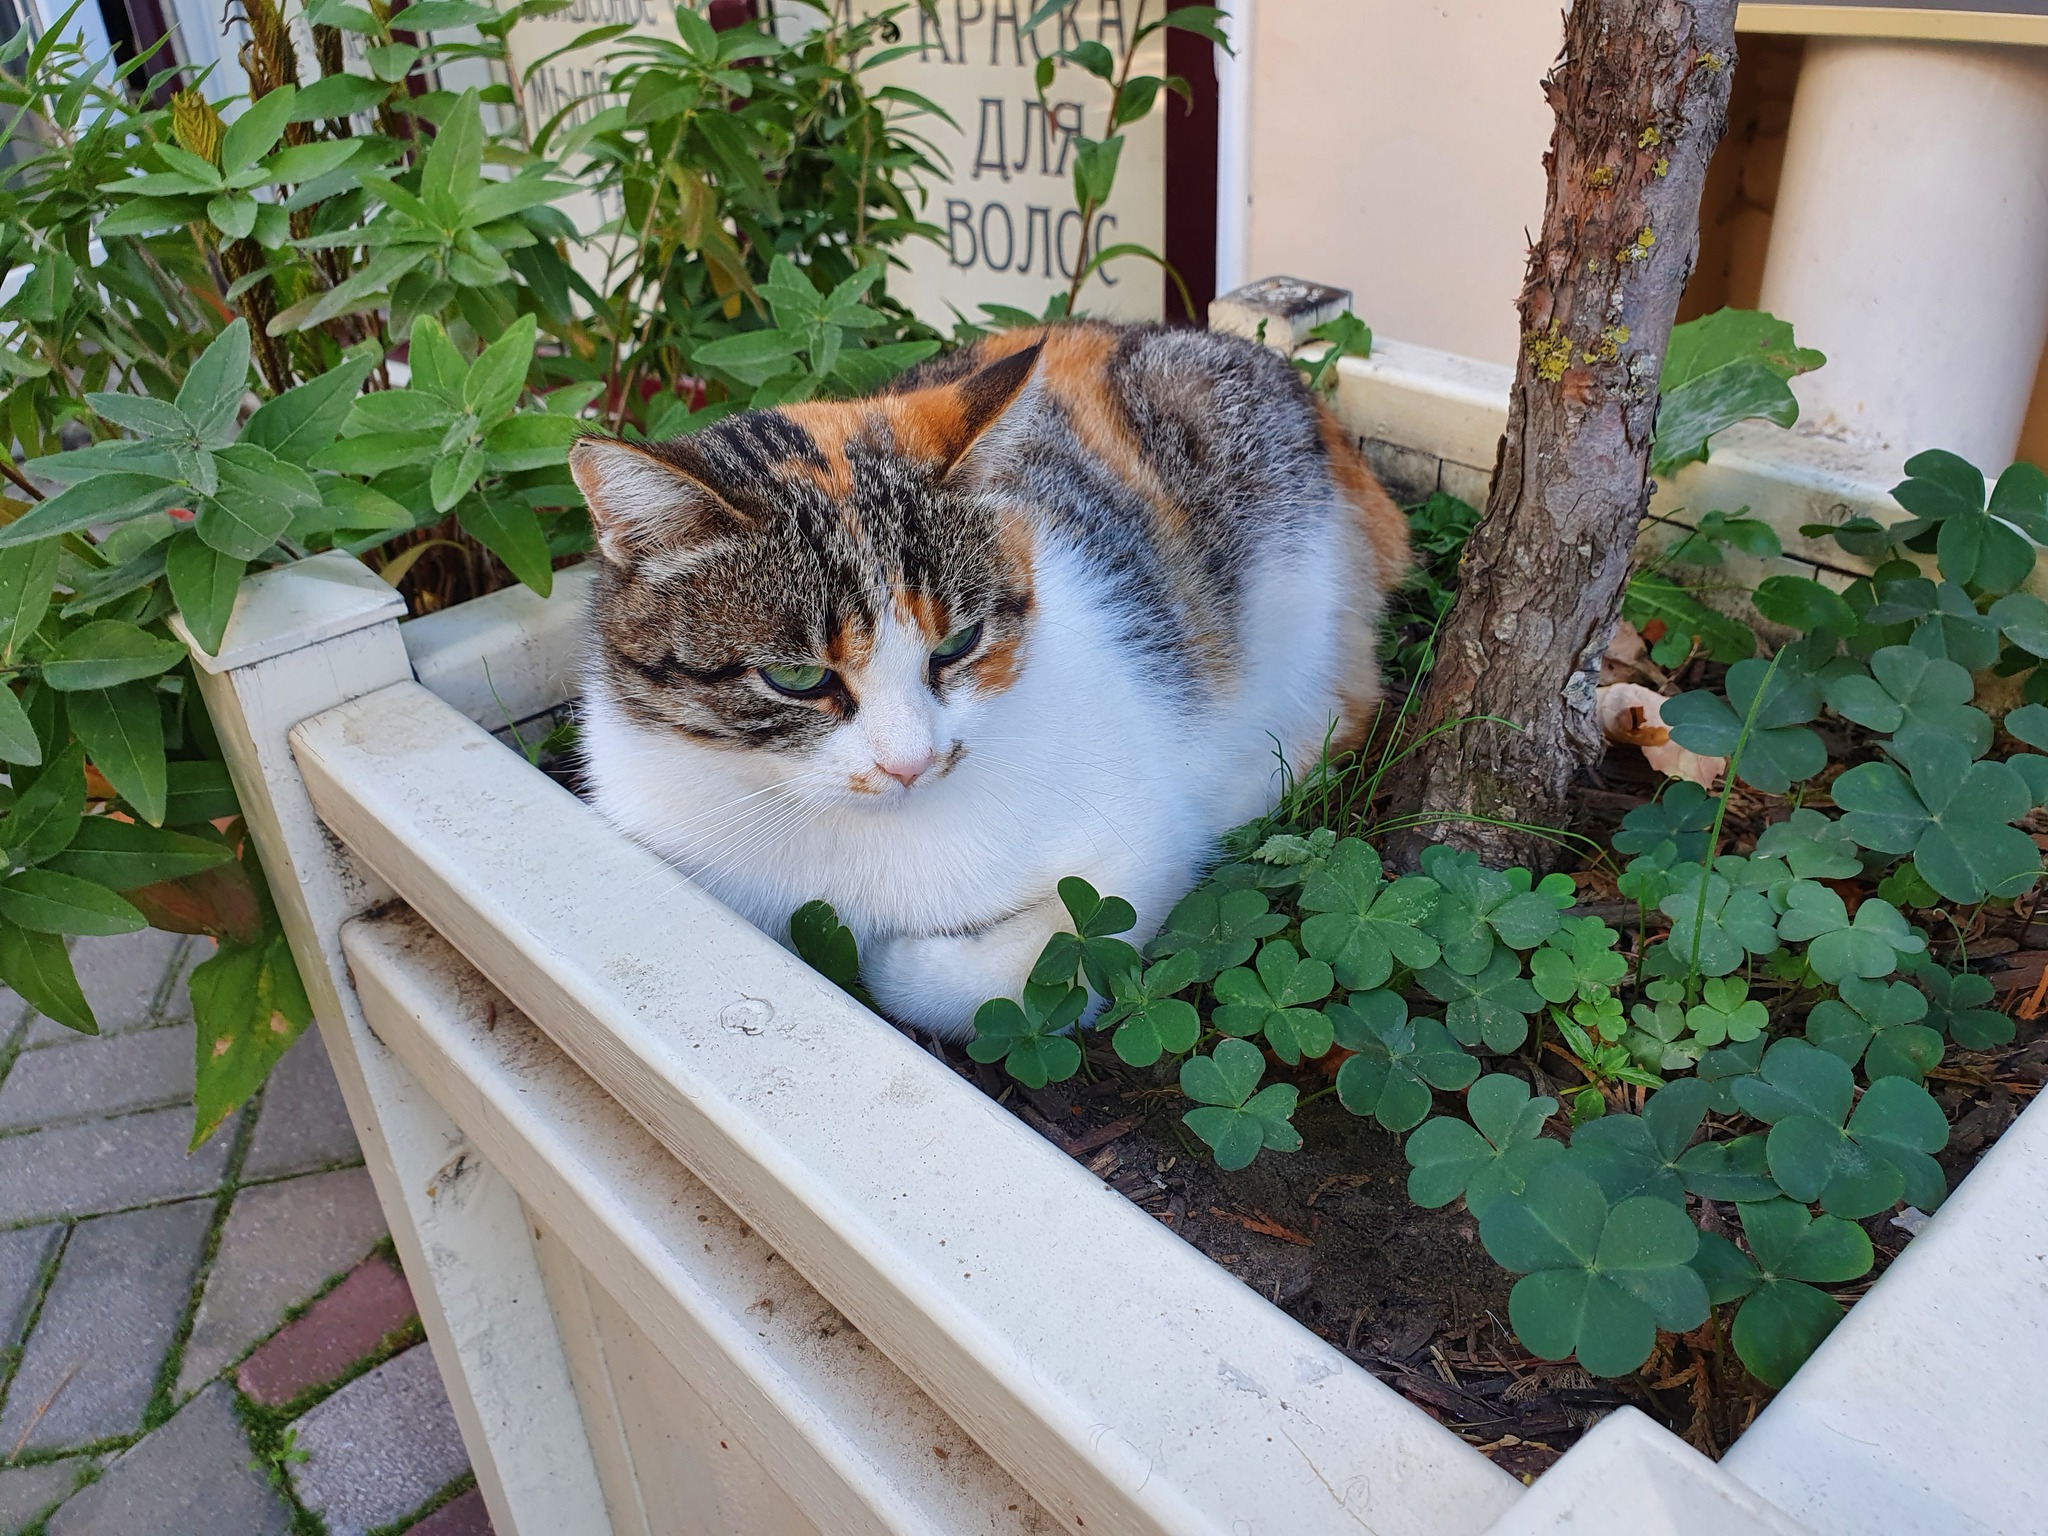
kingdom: Animalia
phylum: Chordata
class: Mammalia
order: Carnivora
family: Felidae
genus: Felis
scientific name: Felis catus
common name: Domestic cat
